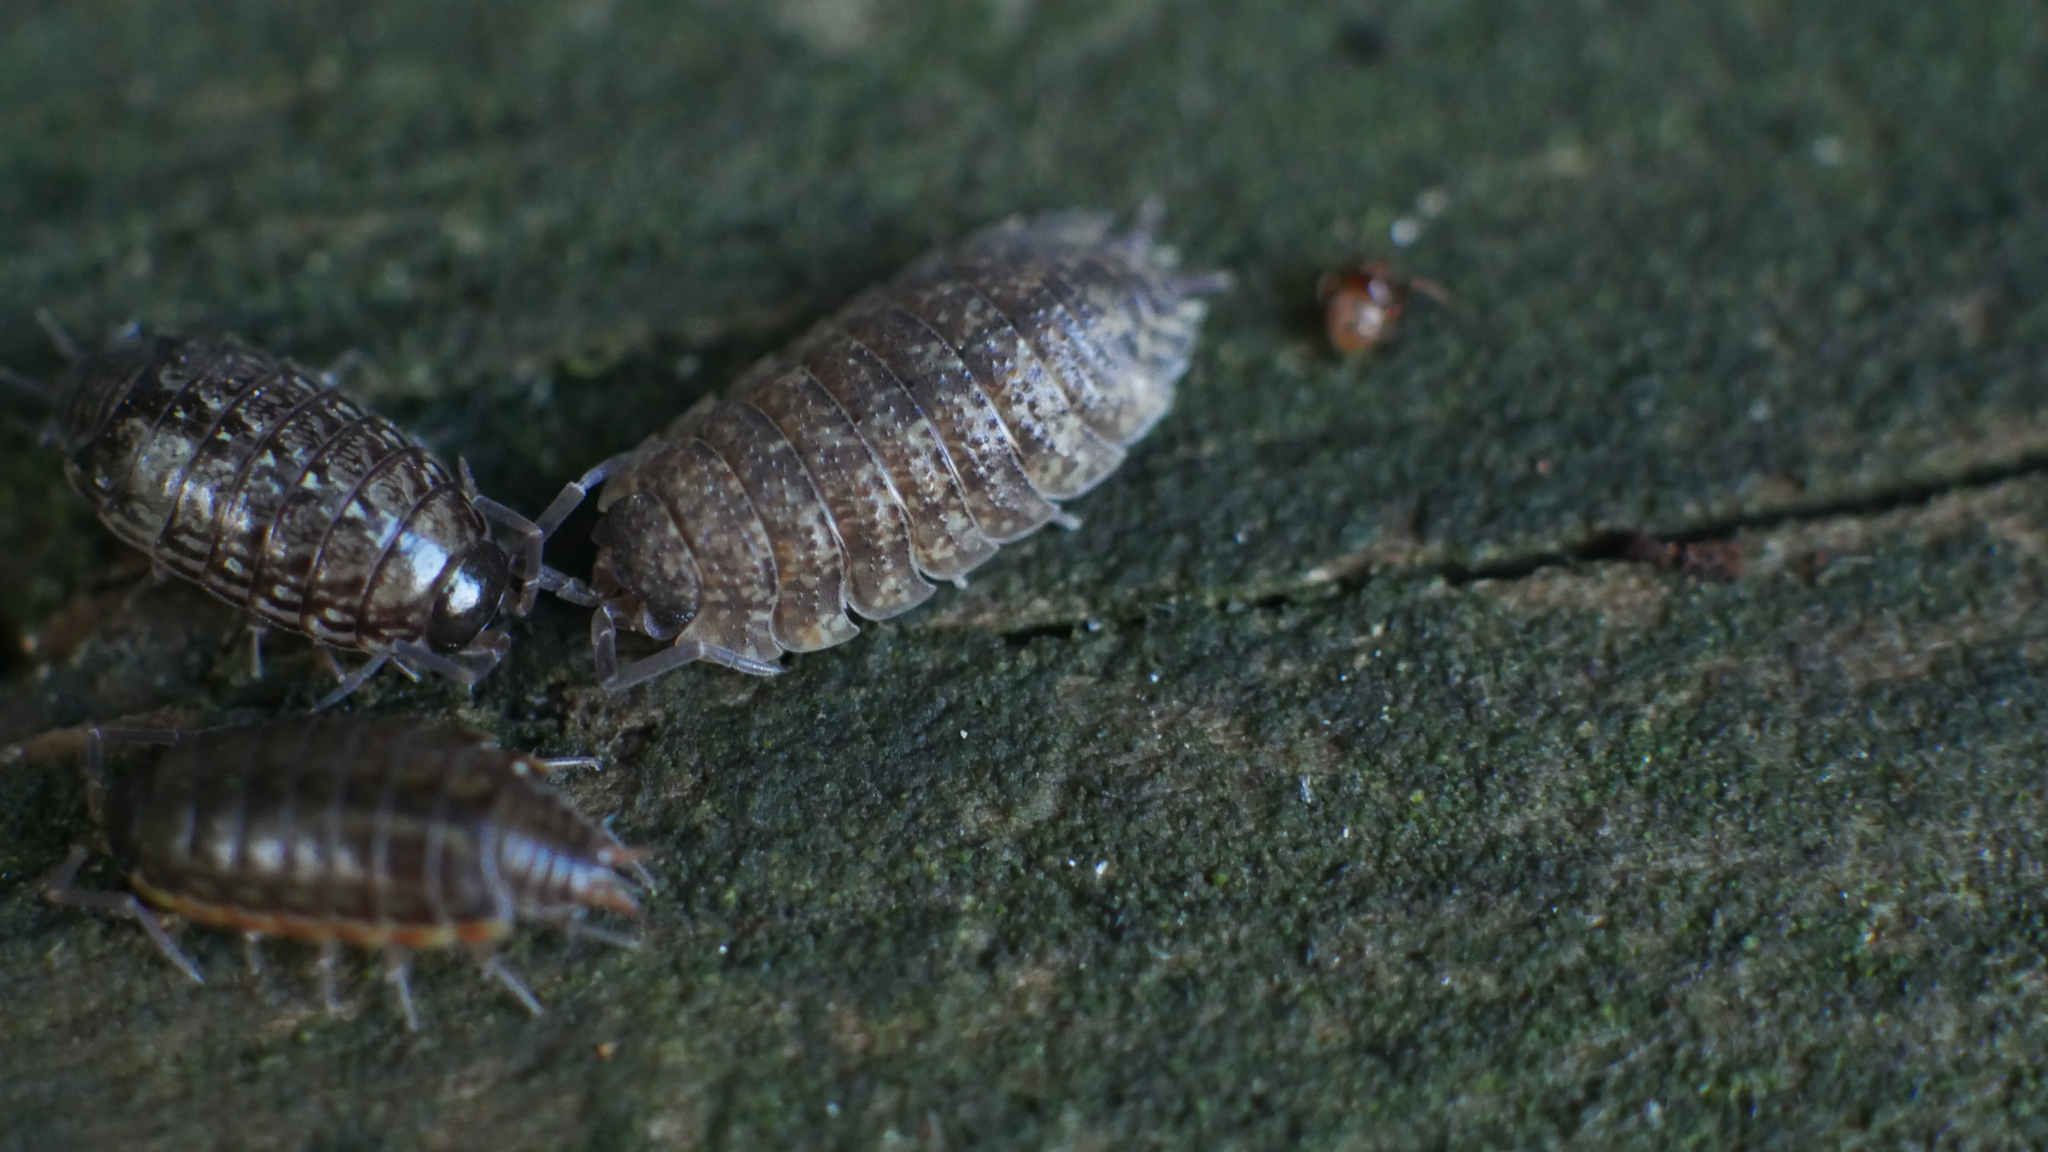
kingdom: Animalia
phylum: Arthropoda
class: Malacostraca
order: Isopoda
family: Porcellionidae
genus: Porcellio
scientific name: Porcellio scaber
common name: Common rough woodlouse
